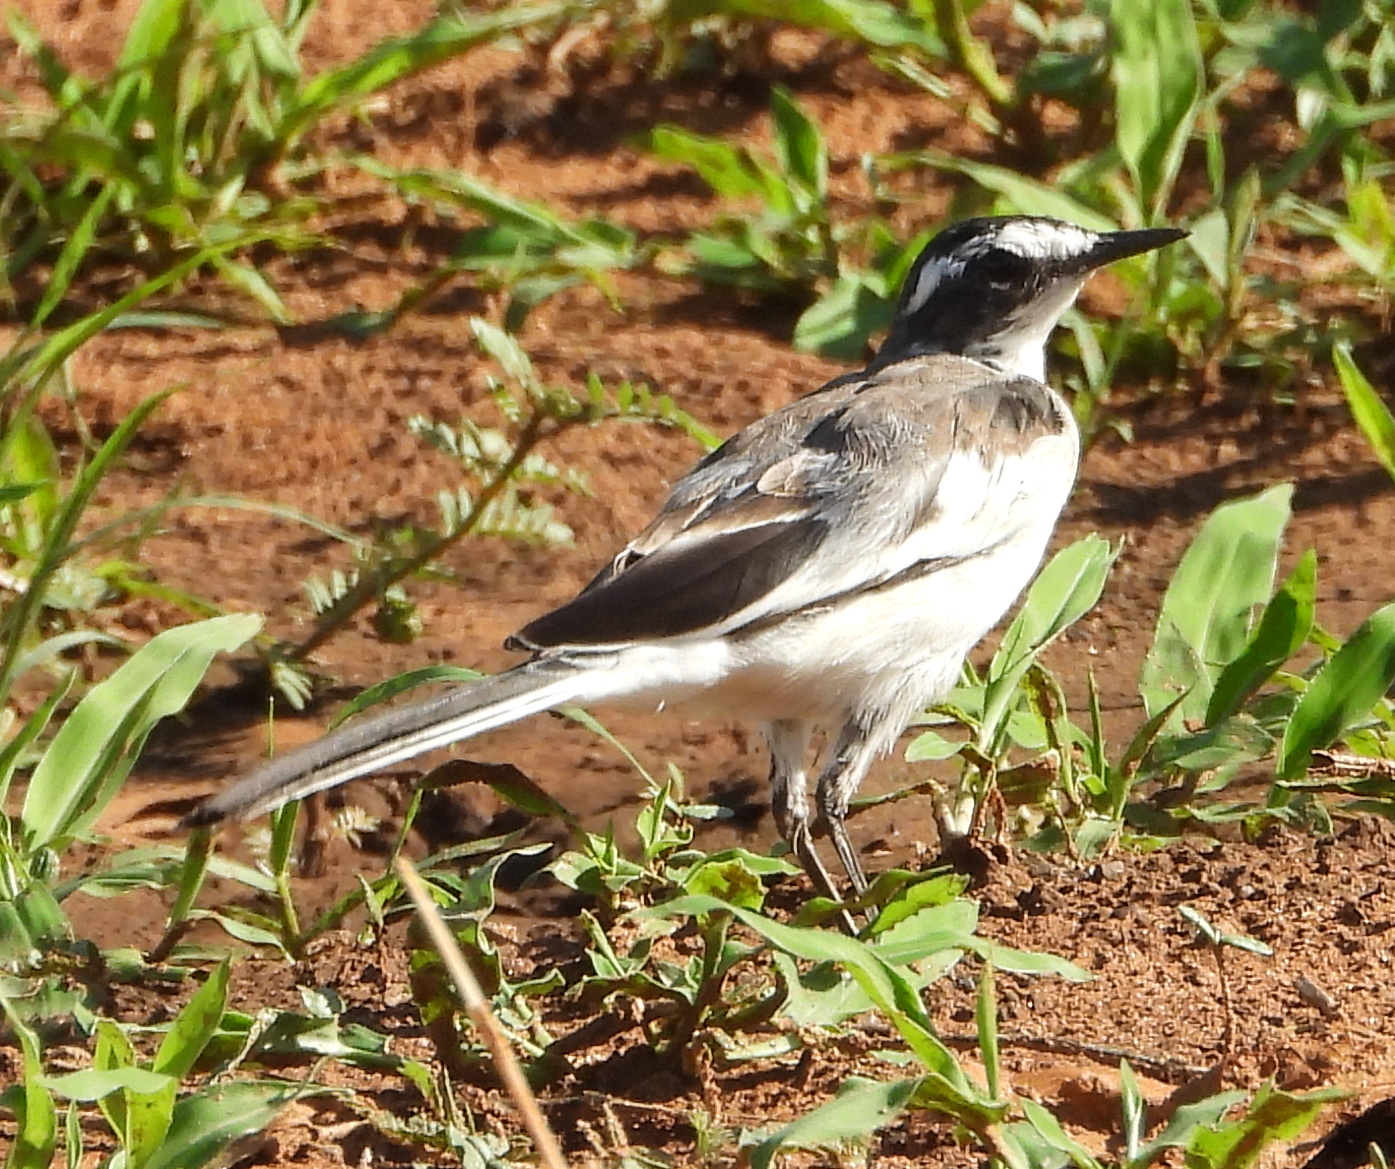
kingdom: Animalia
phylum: Chordata
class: Aves
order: Passeriformes
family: Motacillidae
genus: Motacilla
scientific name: Motacilla aguimp
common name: African pied wagtail
